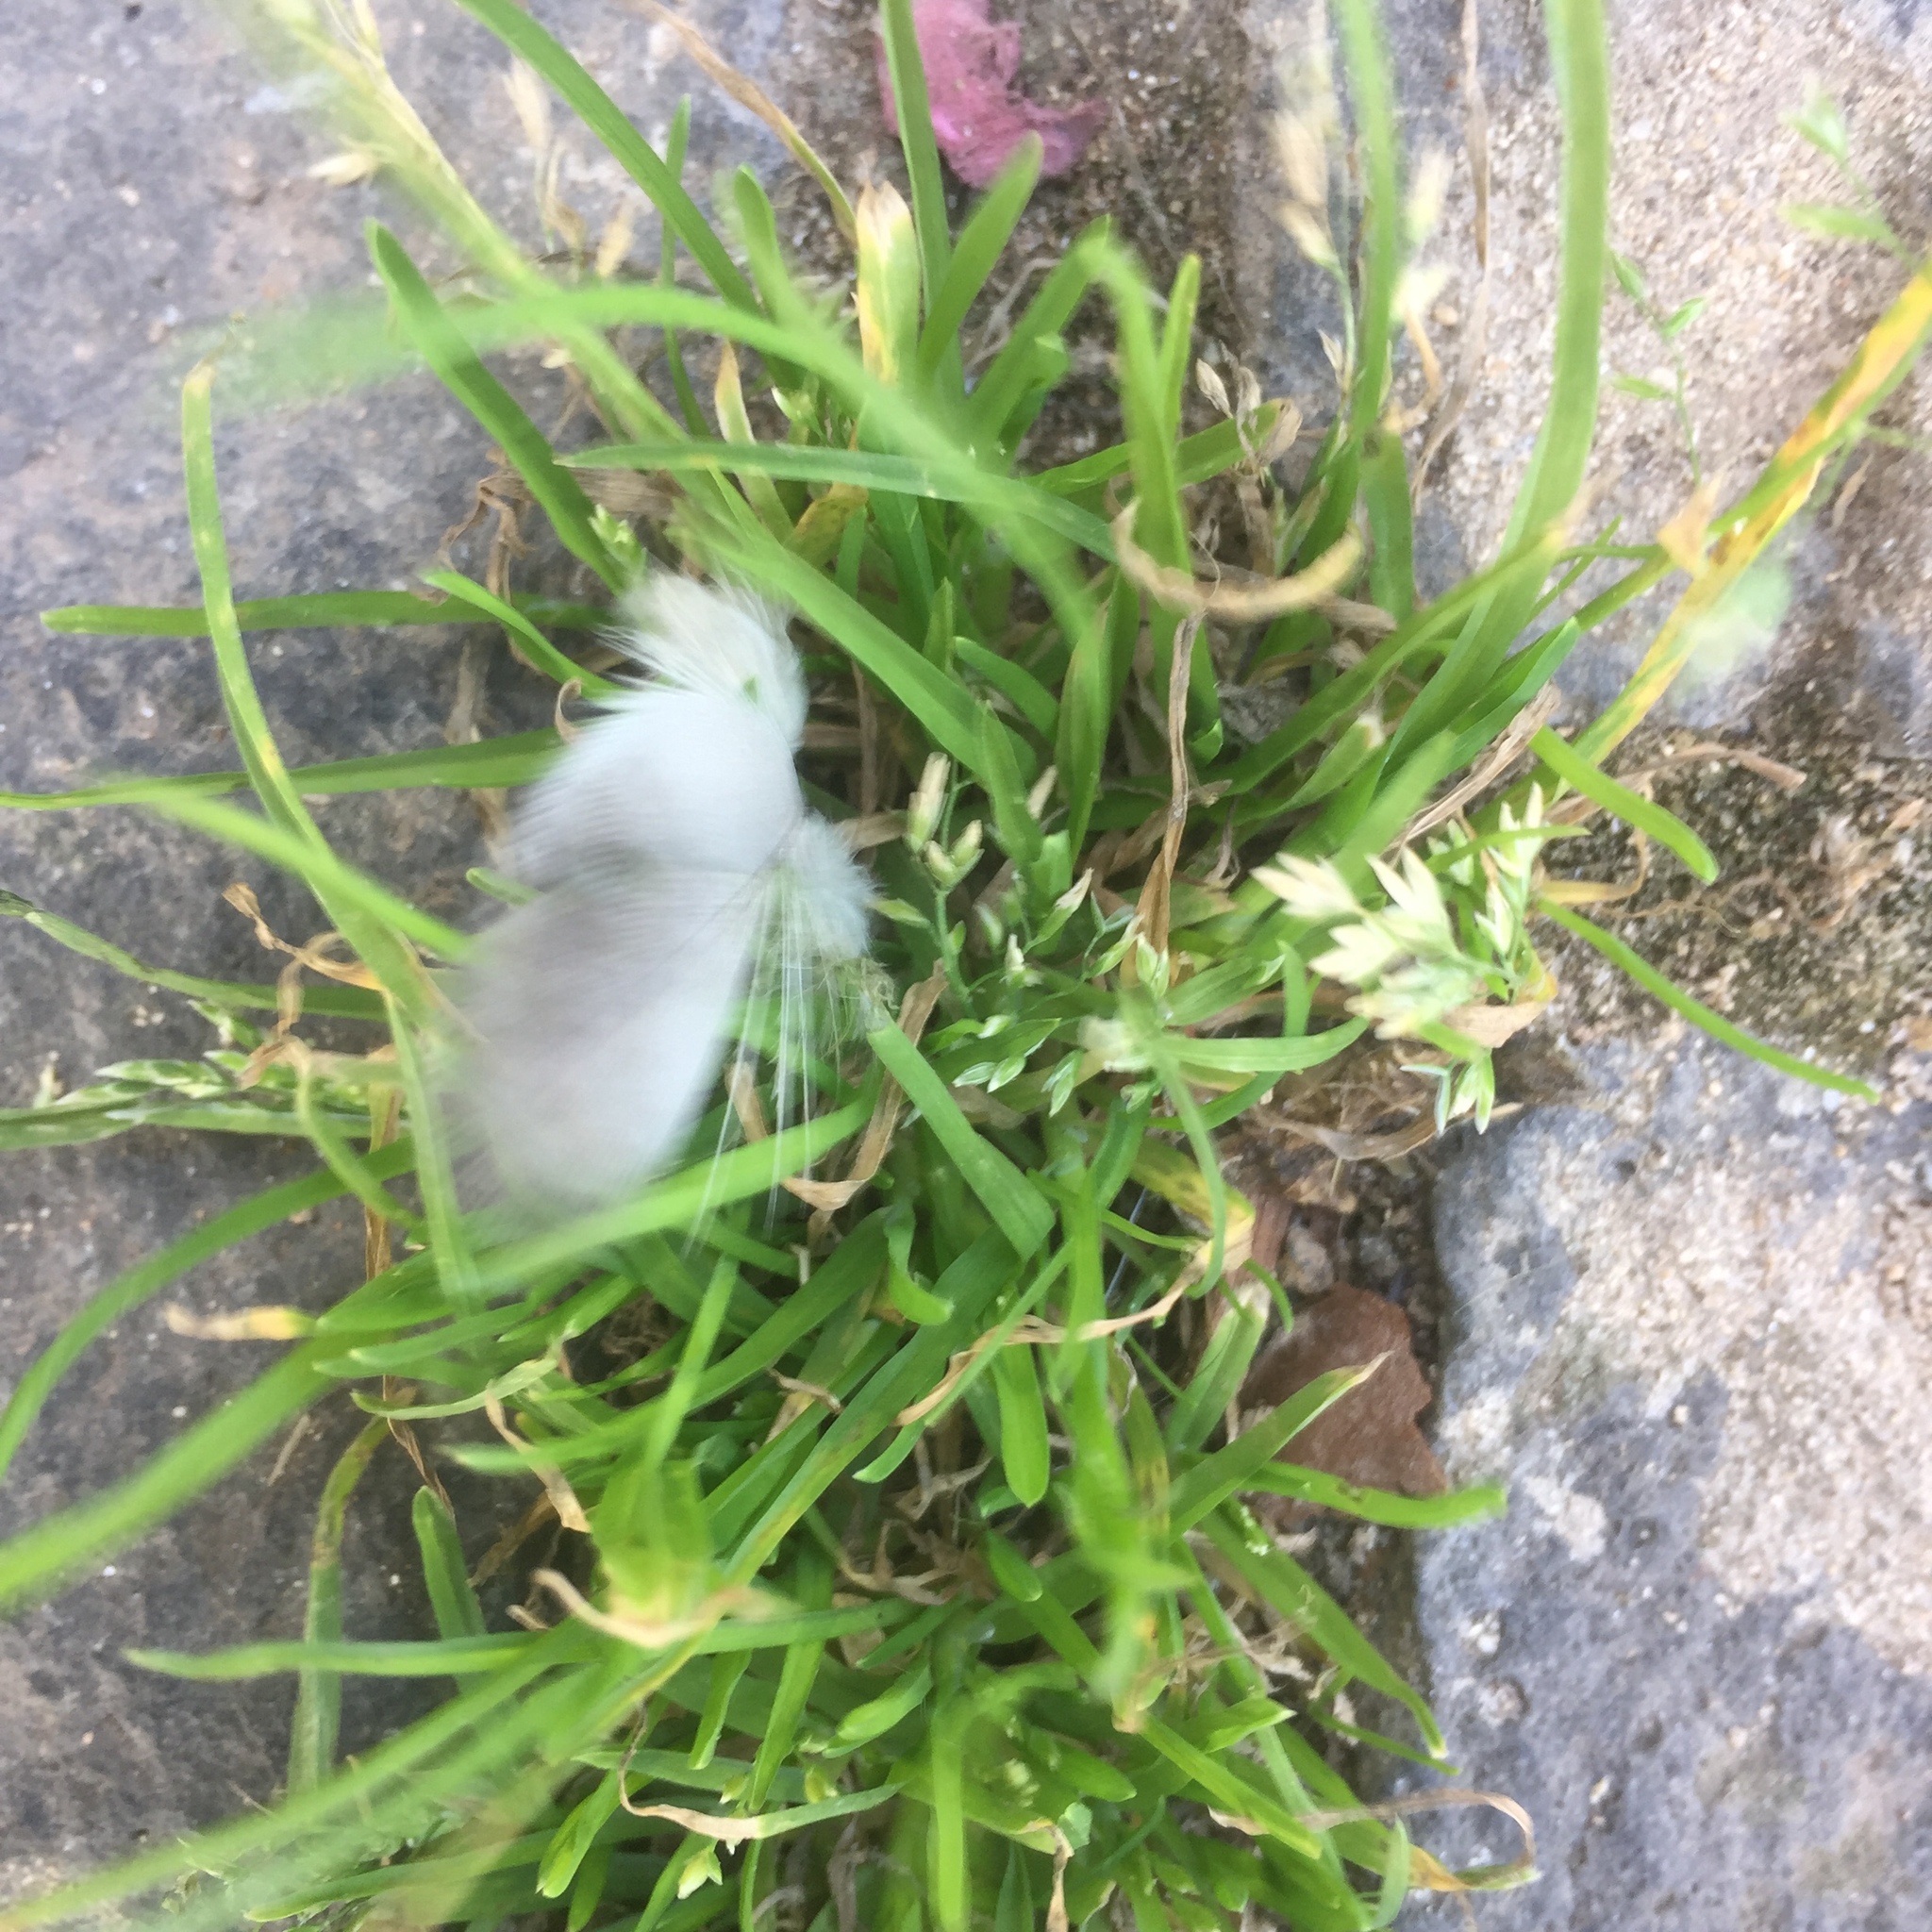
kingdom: Plantae
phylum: Tracheophyta
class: Liliopsida
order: Poales
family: Poaceae
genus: Poa
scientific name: Poa annua
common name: Annual bluegrass
